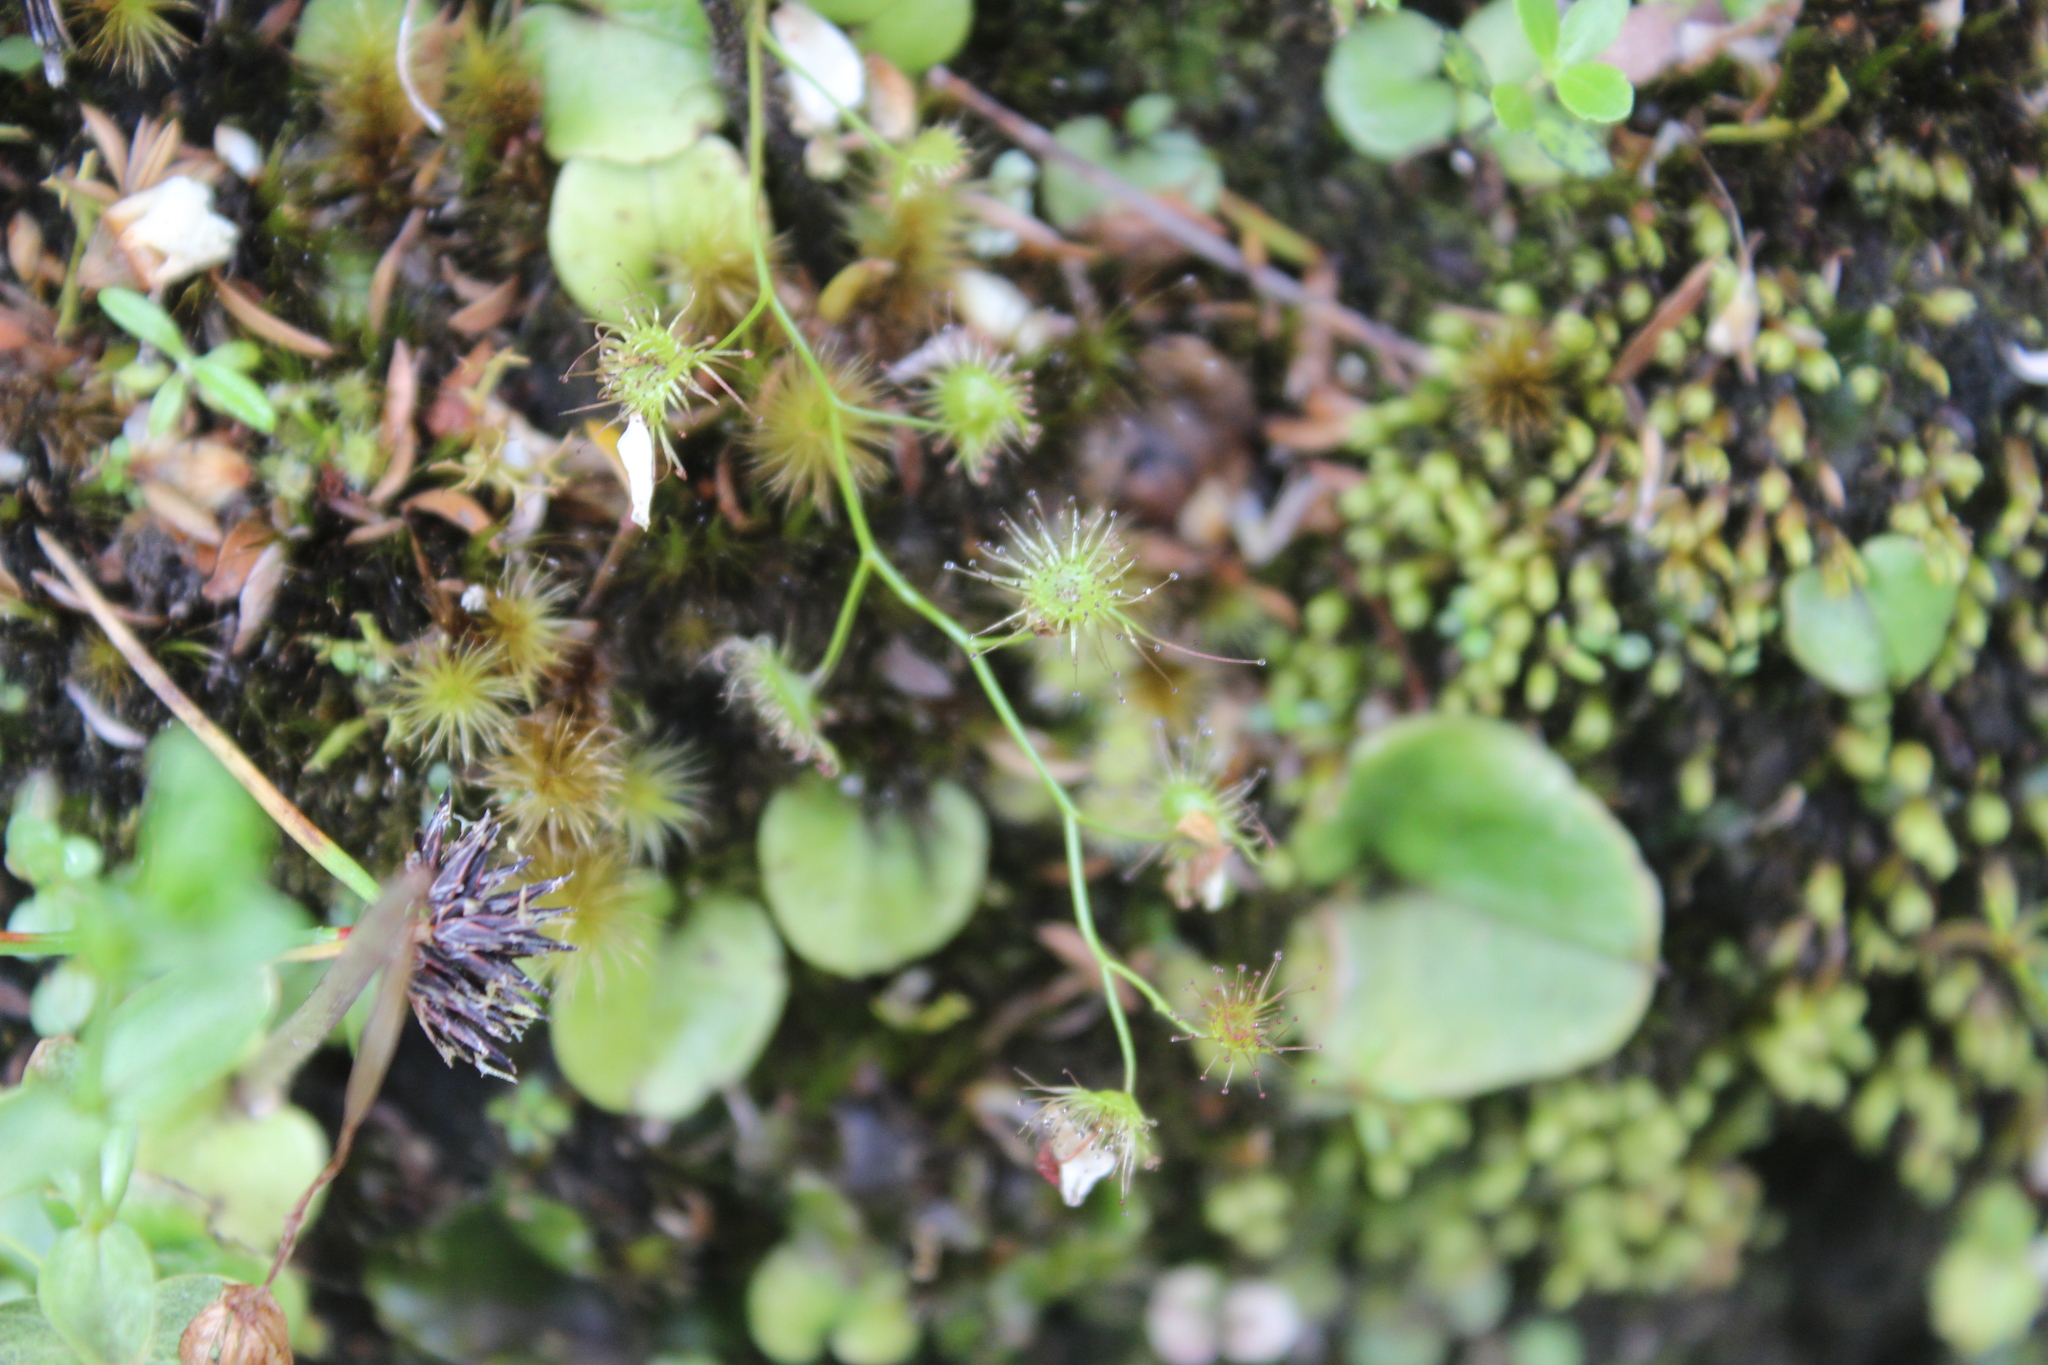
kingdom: Plantae
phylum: Tracheophyta
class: Magnoliopsida
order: Caryophyllales
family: Droseraceae
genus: Drosera
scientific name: Drosera peltata
